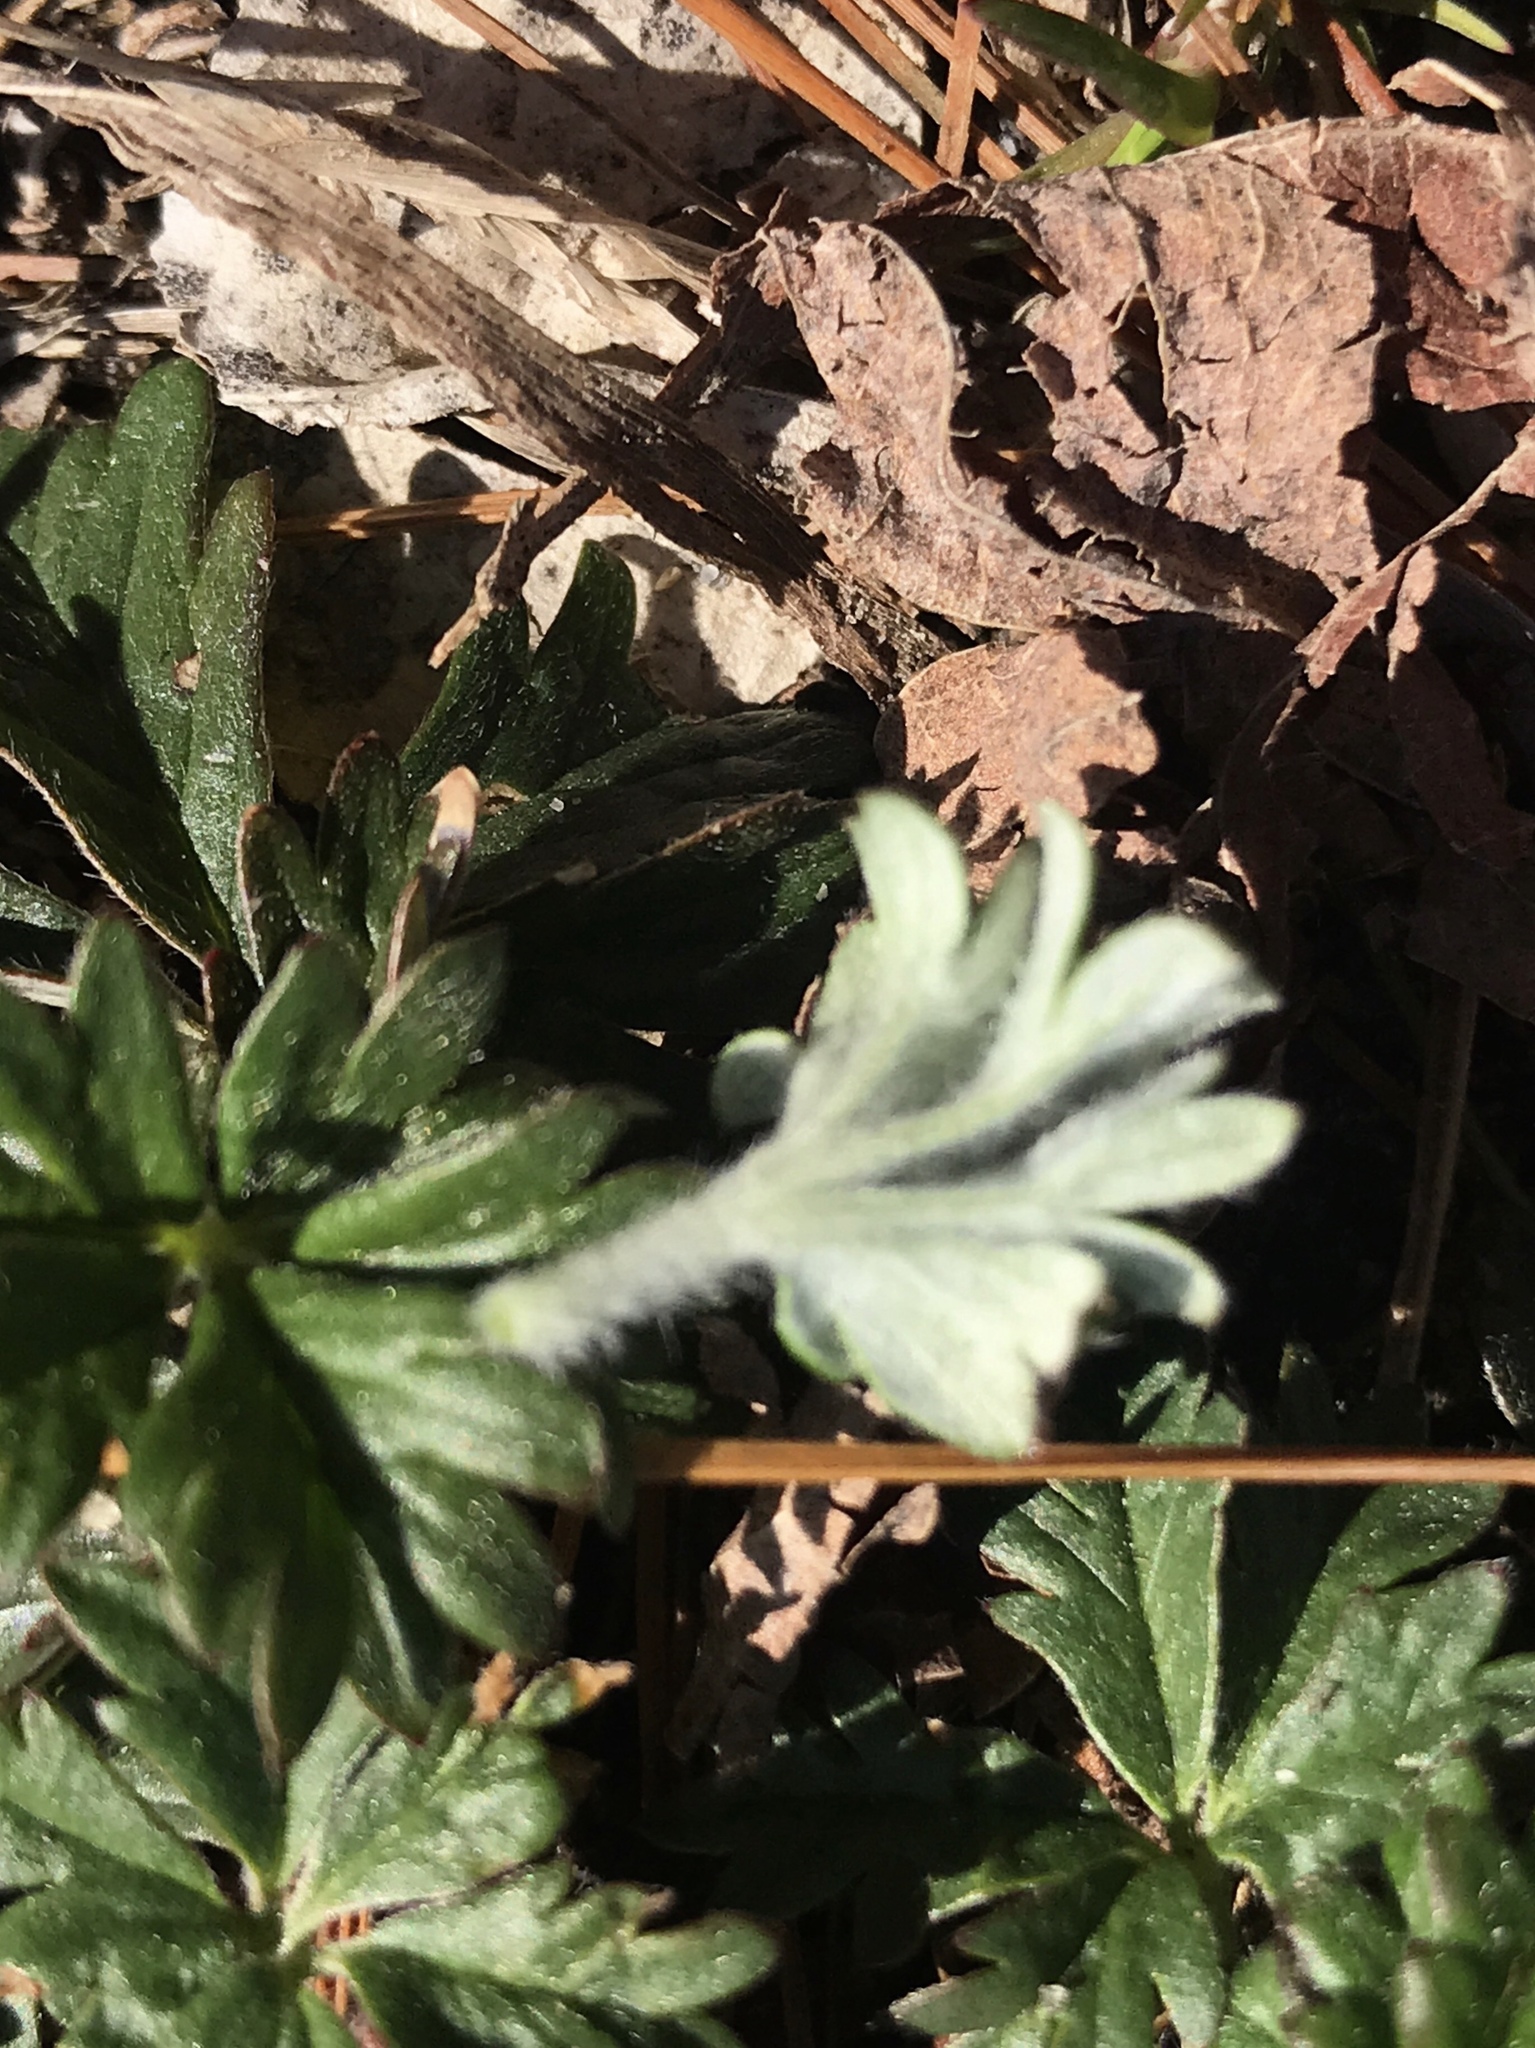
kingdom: Plantae
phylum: Tracheophyta
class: Magnoliopsida
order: Rosales
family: Rosaceae
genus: Potentilla
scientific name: Potentilla argentea
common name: Hoary cinquefoil
